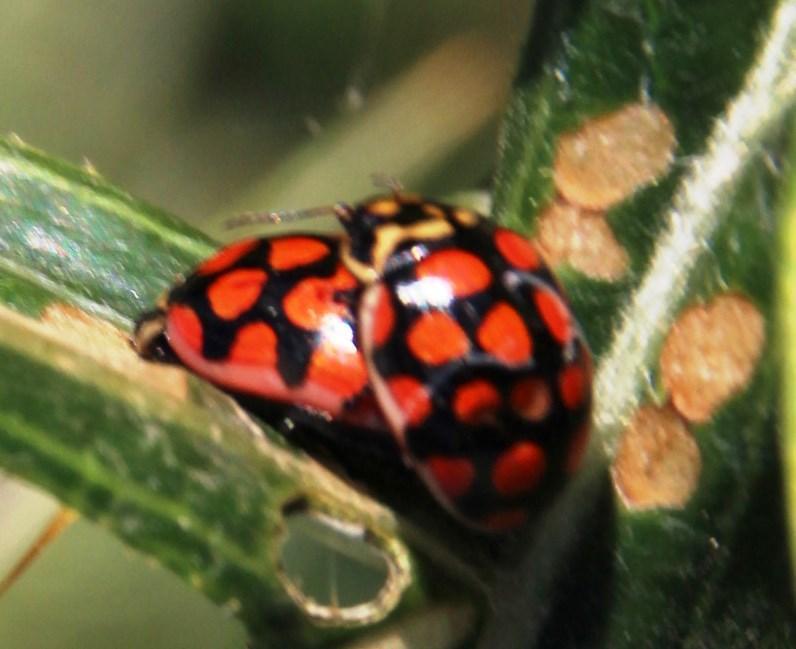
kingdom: Animalia
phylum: Arthropoda
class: Insecta
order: Coleoptera
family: Coccinellidae
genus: Harmonia
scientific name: Harmonia axyridis
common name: Harlequin ladybird
